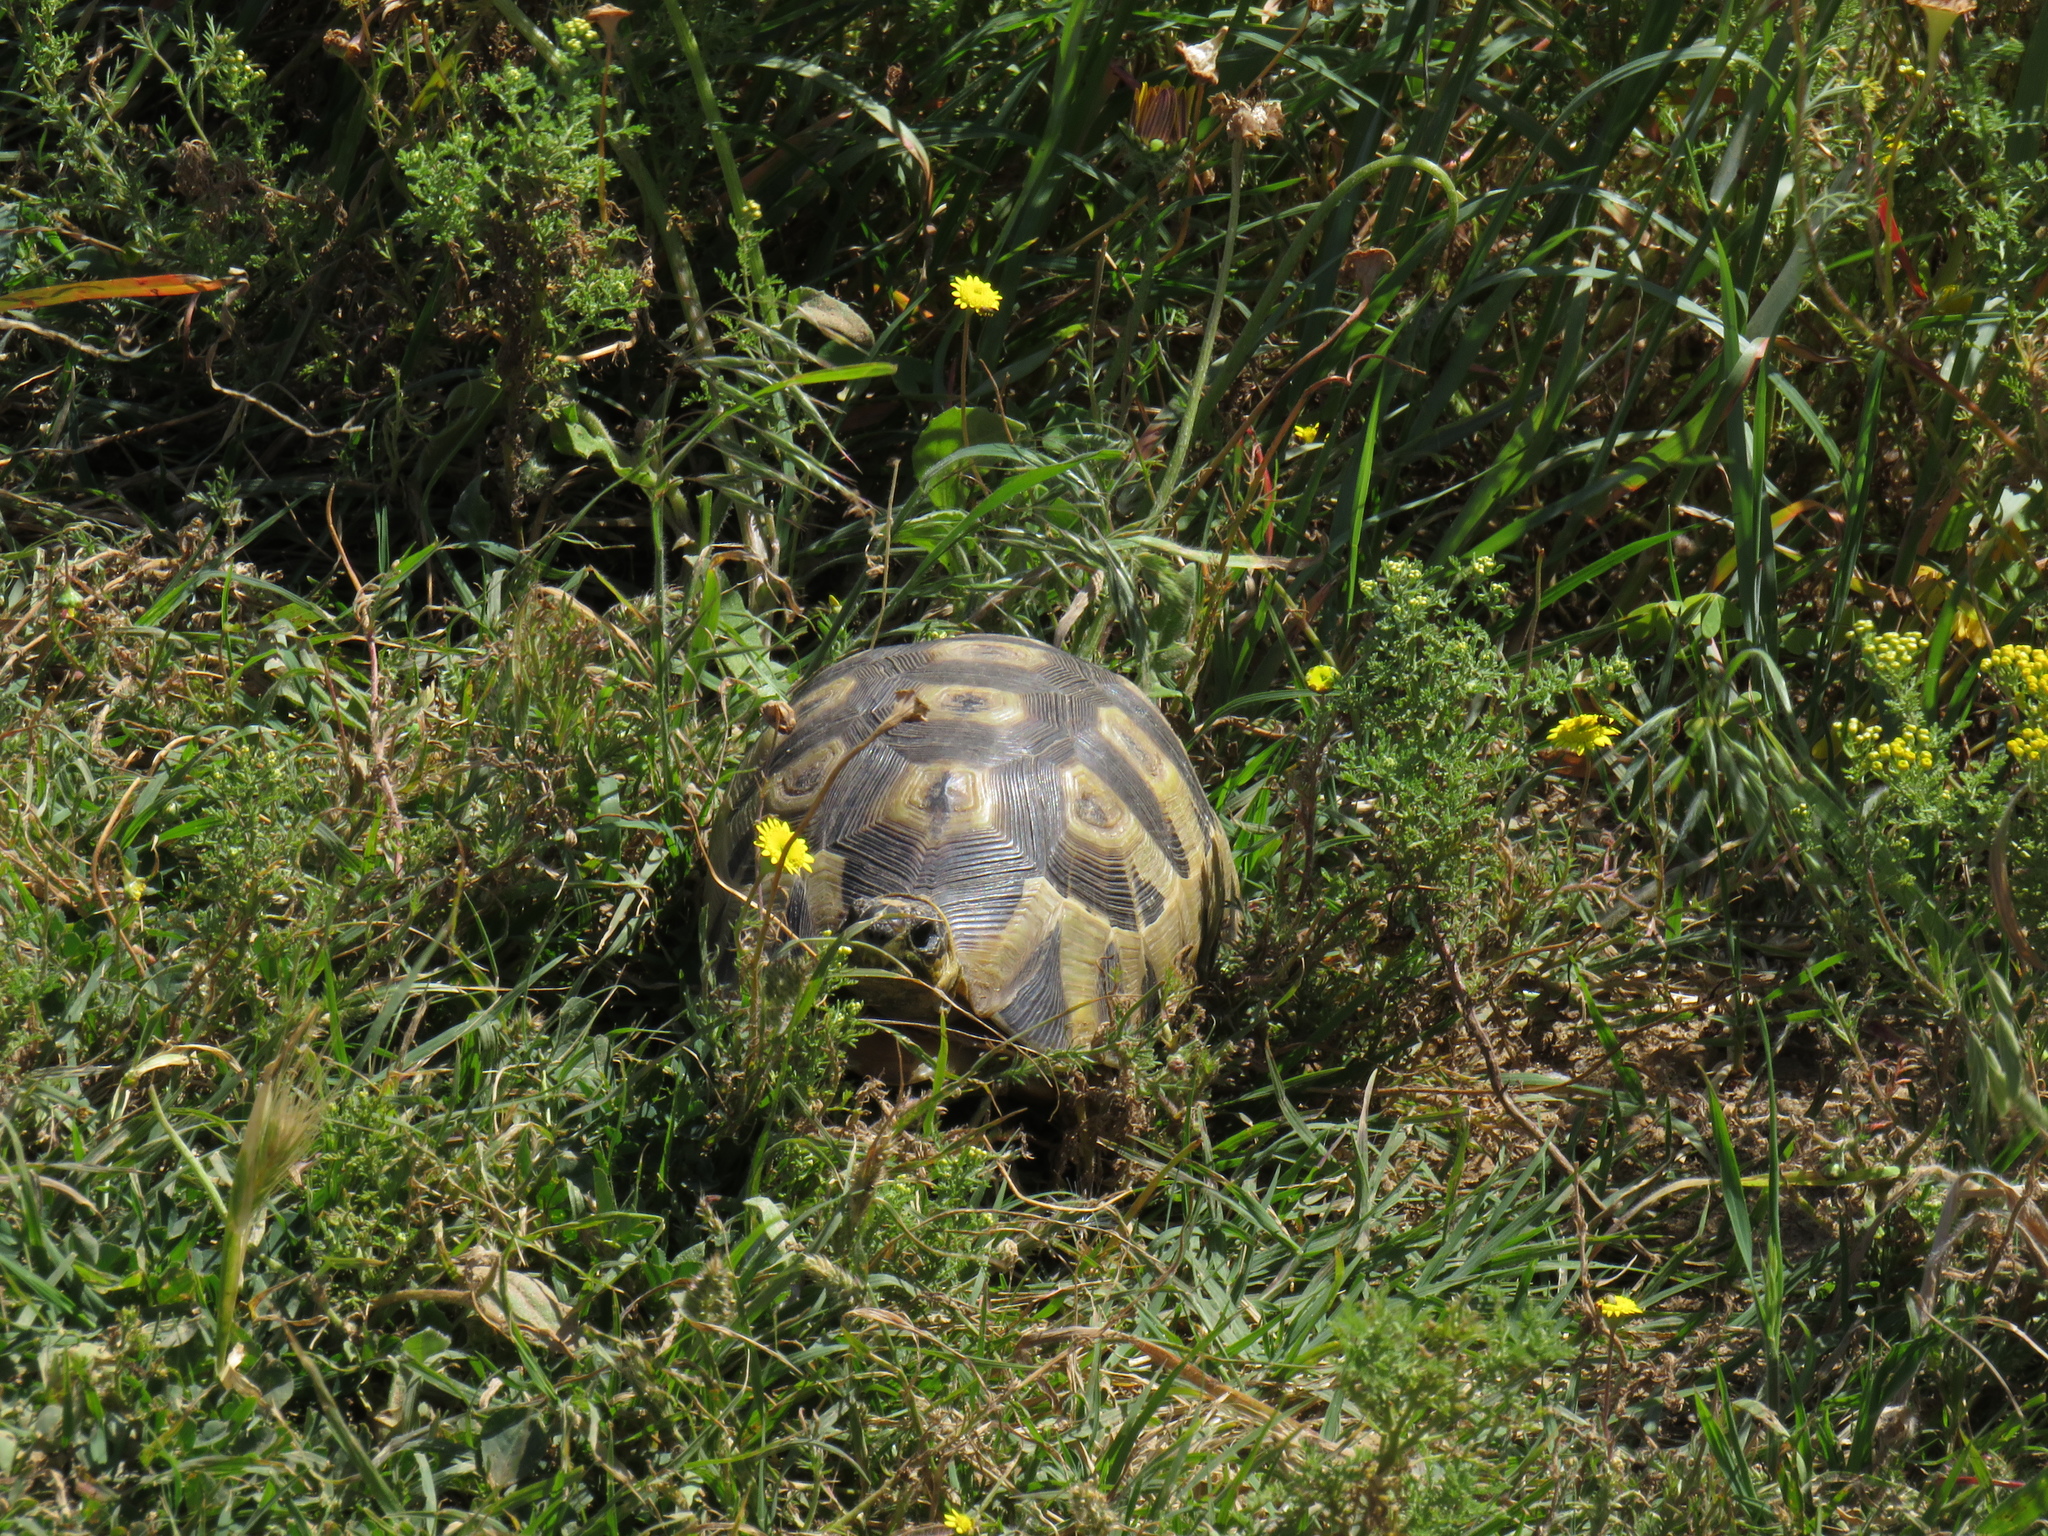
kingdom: Animalia
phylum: Chordata
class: Testudines
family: Testudinidae
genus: Chersina
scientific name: Chersina angulata
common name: South african bowsprit tortoise
